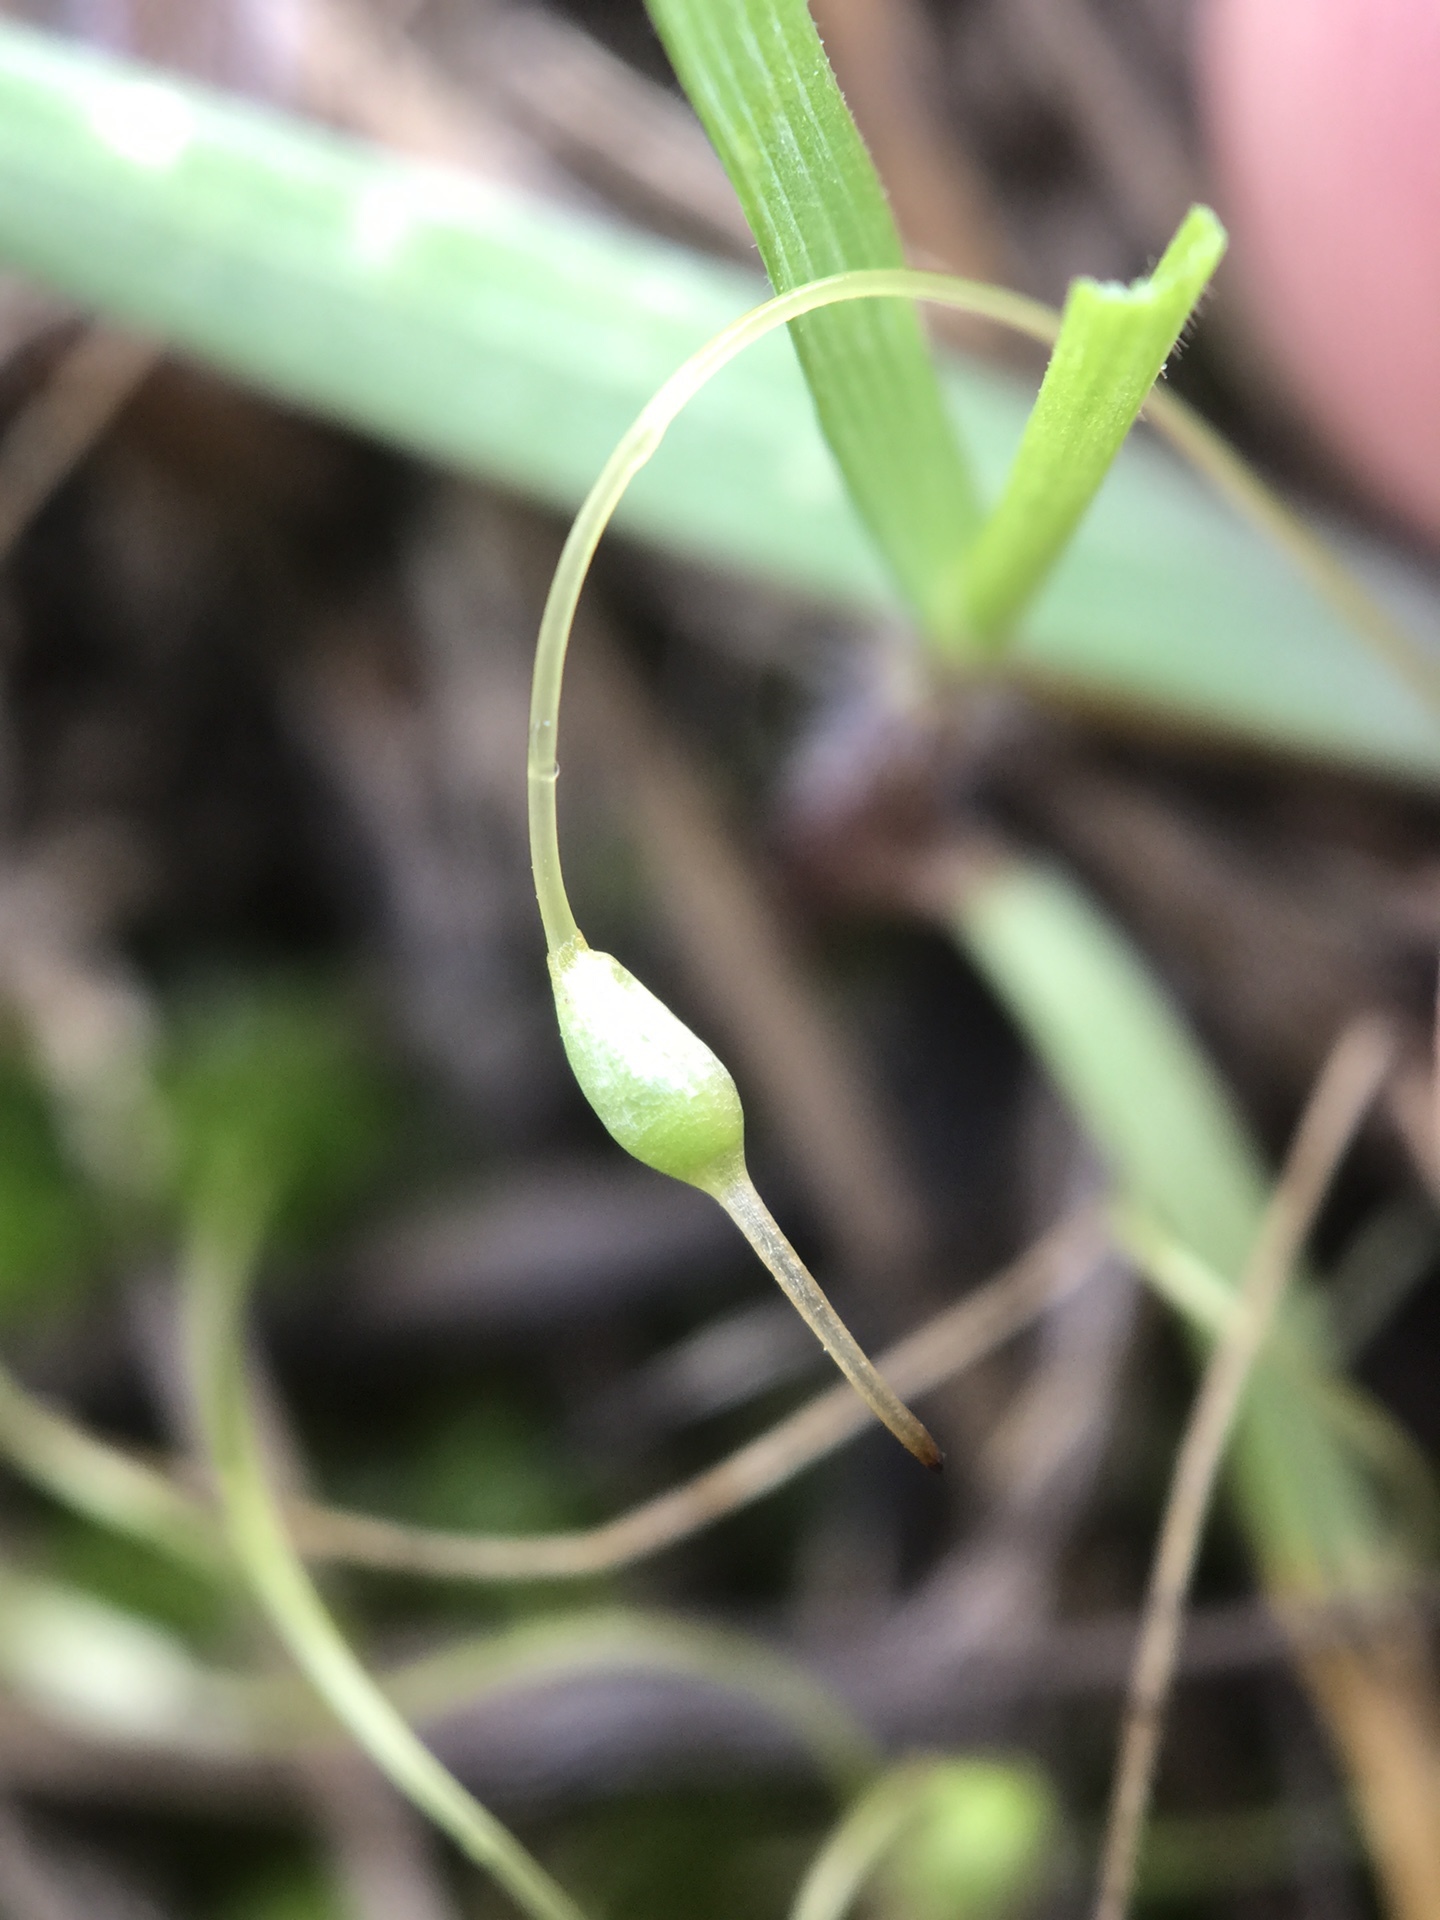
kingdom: Plantae
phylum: Bryophyta
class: Bryopsida
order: Funariales
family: Funariaceae
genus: Funaria
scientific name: Funaria hygrometrica
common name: Common cord moss
